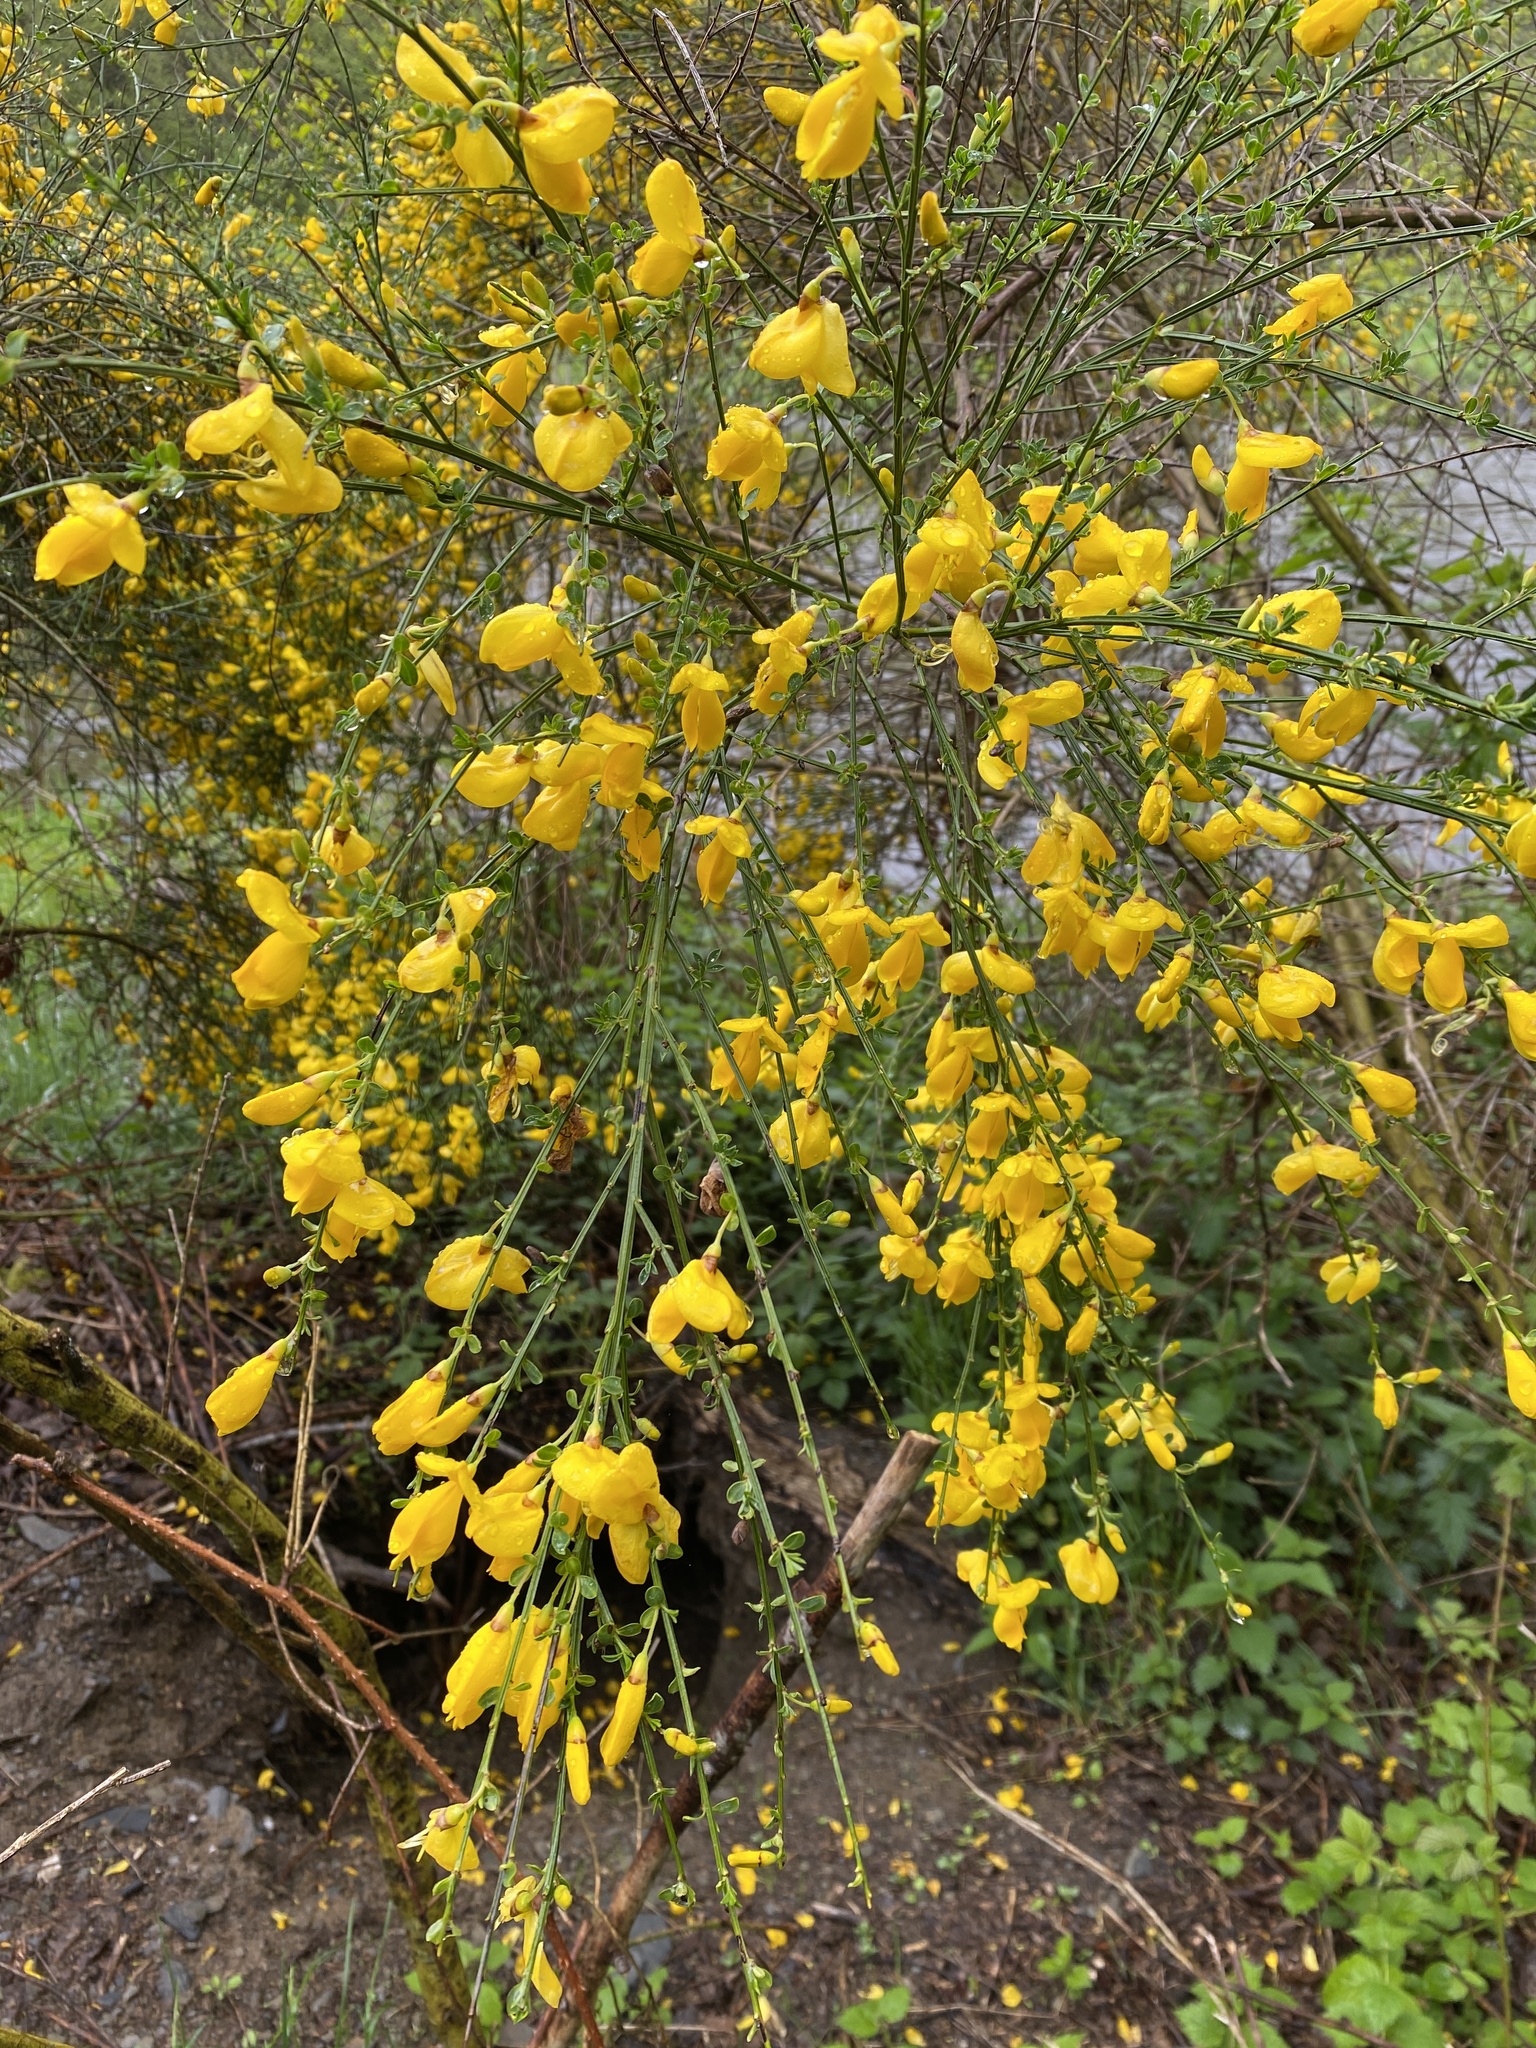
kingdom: Plantae
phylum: Tracheophyta
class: Magnoliopsida
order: Fabales
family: Fabaceae
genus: Cytisus
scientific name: Cytisus scoparius
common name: Scotch broom
